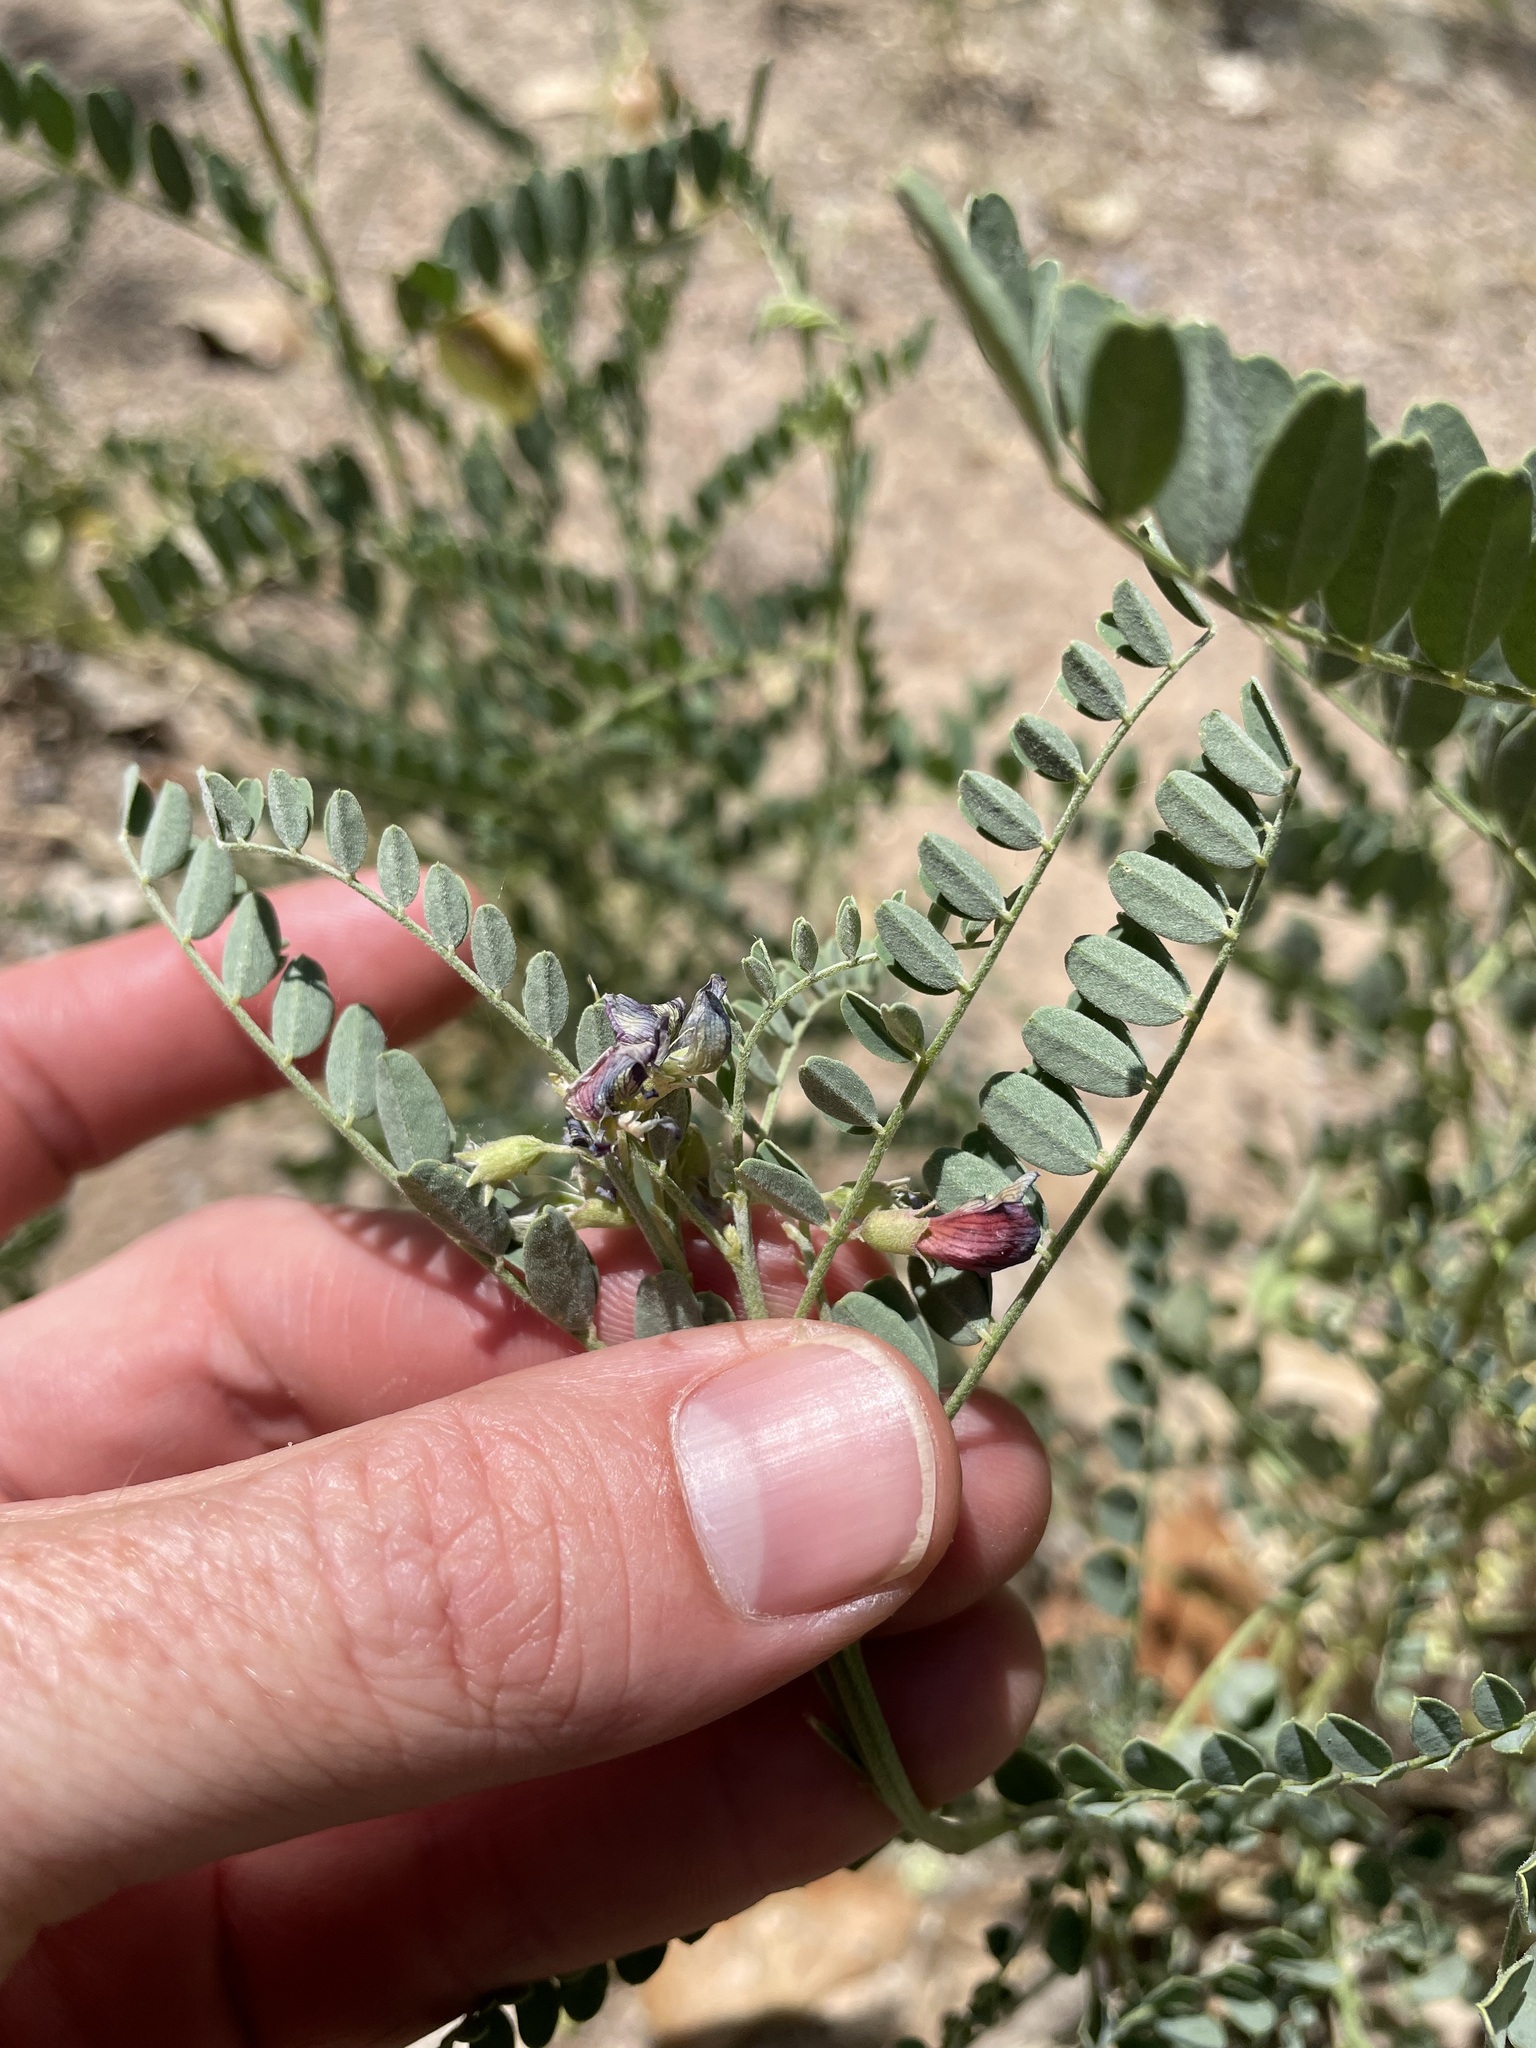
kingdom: Plantae
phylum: Tracheophyta
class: Magnoliopsida
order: Fabales
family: Fabaceae
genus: Sphaerophysa
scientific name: Sphaerophysa salsula
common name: Alkali swainsonpea
